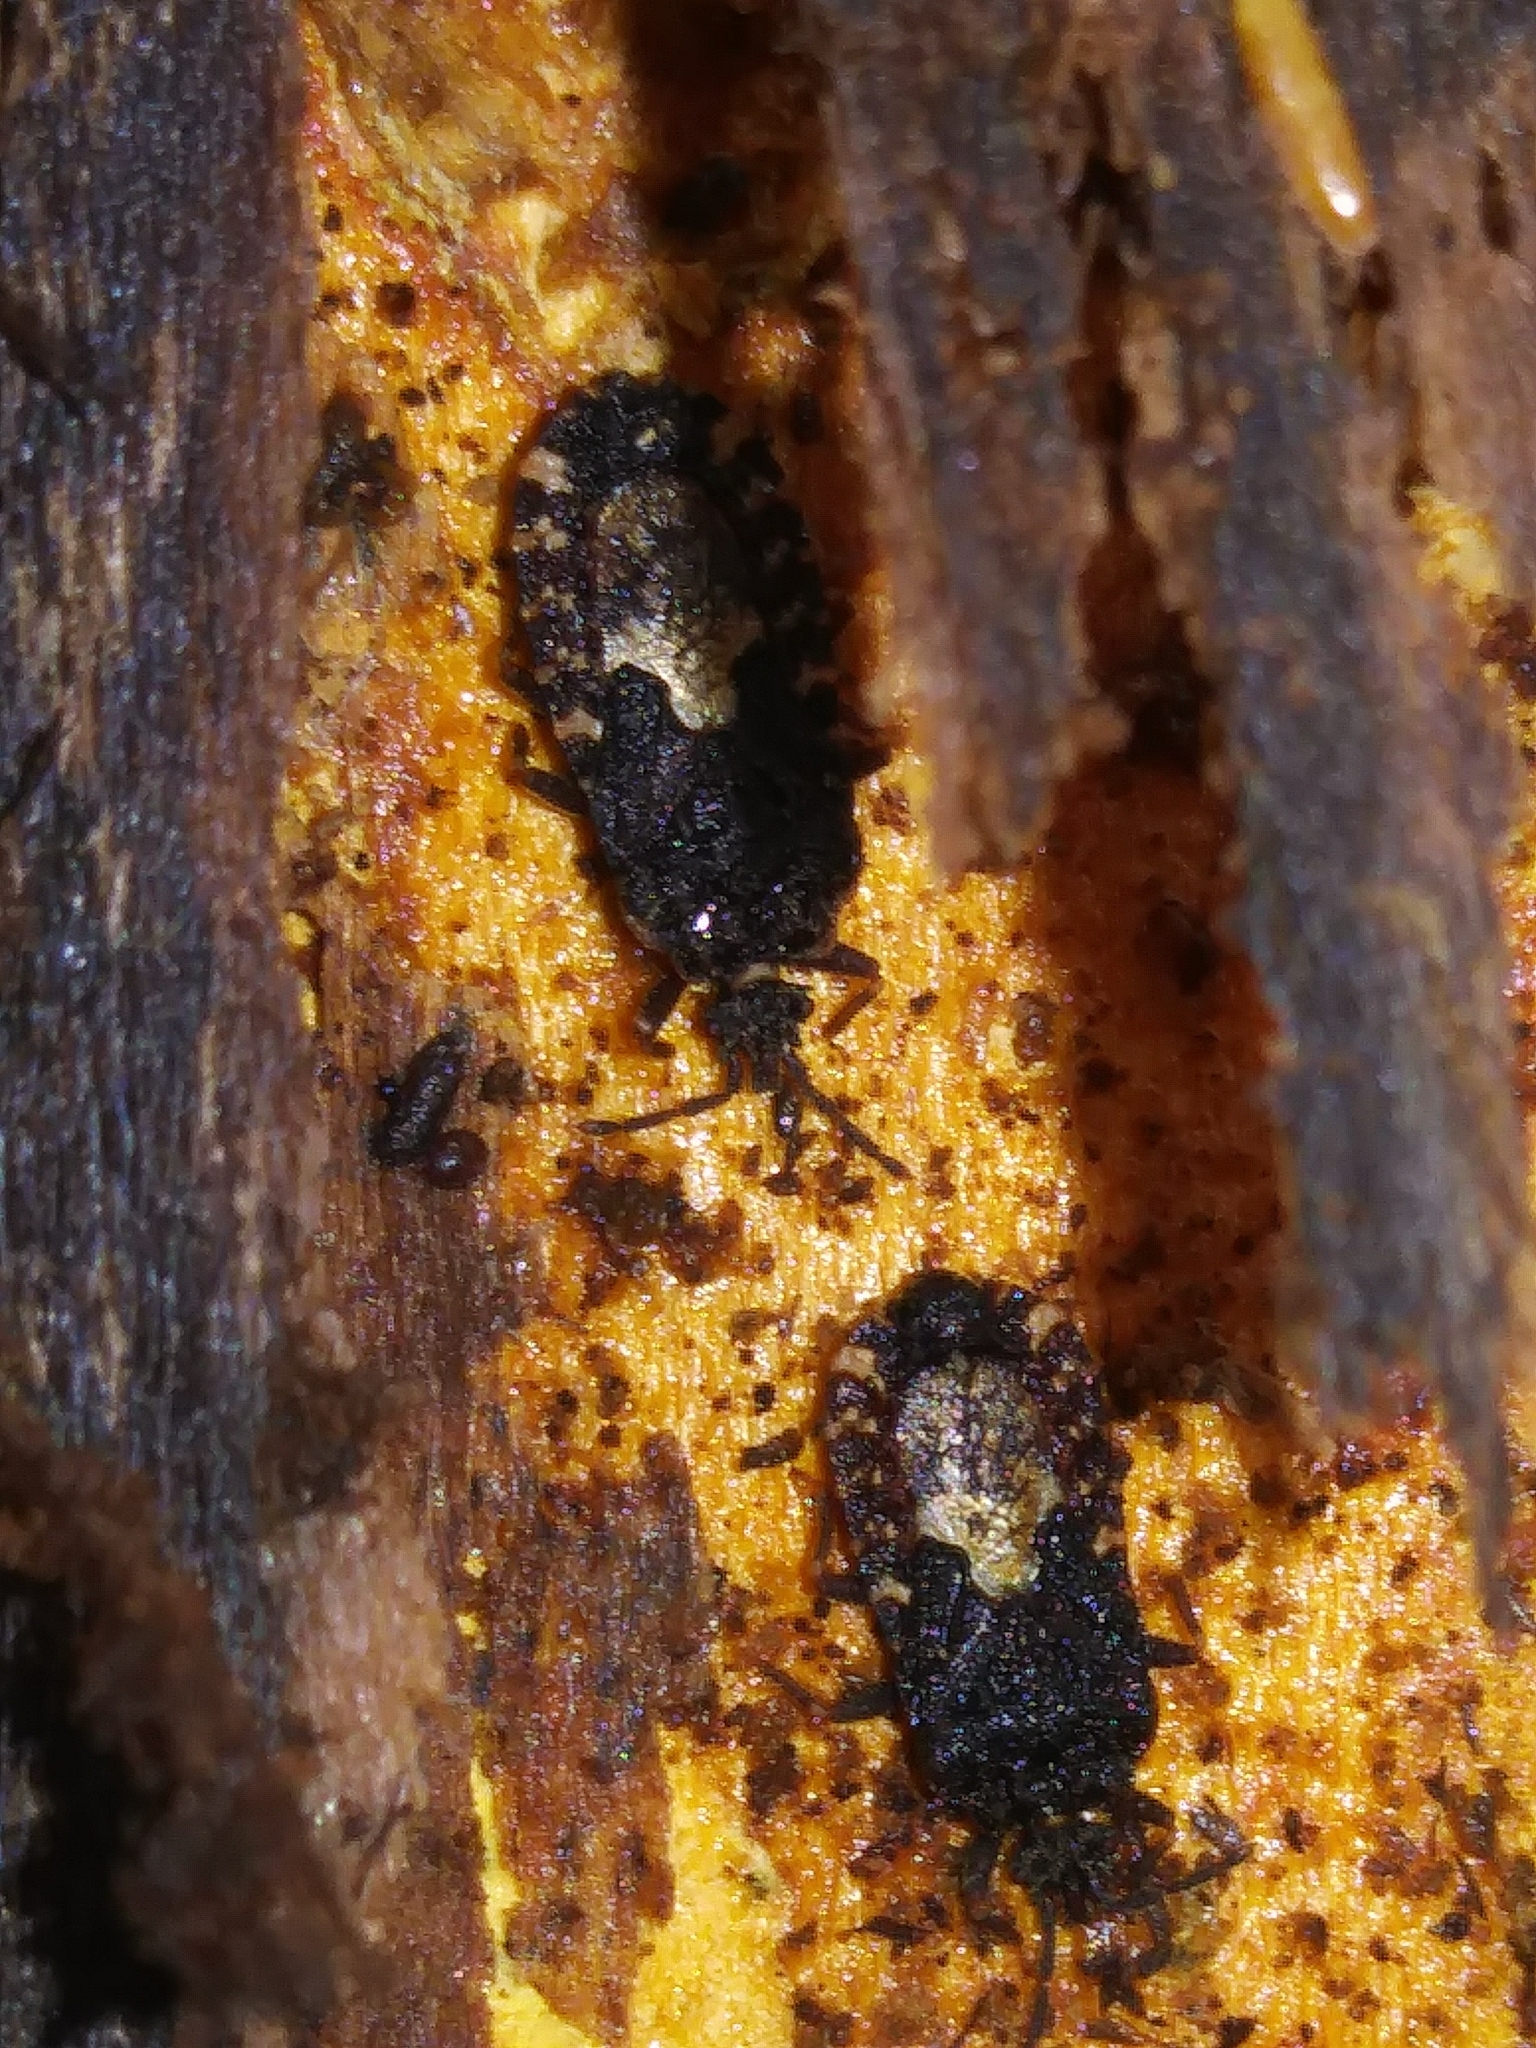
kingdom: Animalia
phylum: Arthropoda
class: Insecta
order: Hemiptera
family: Aradidae
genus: Mezira
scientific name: Mezira
